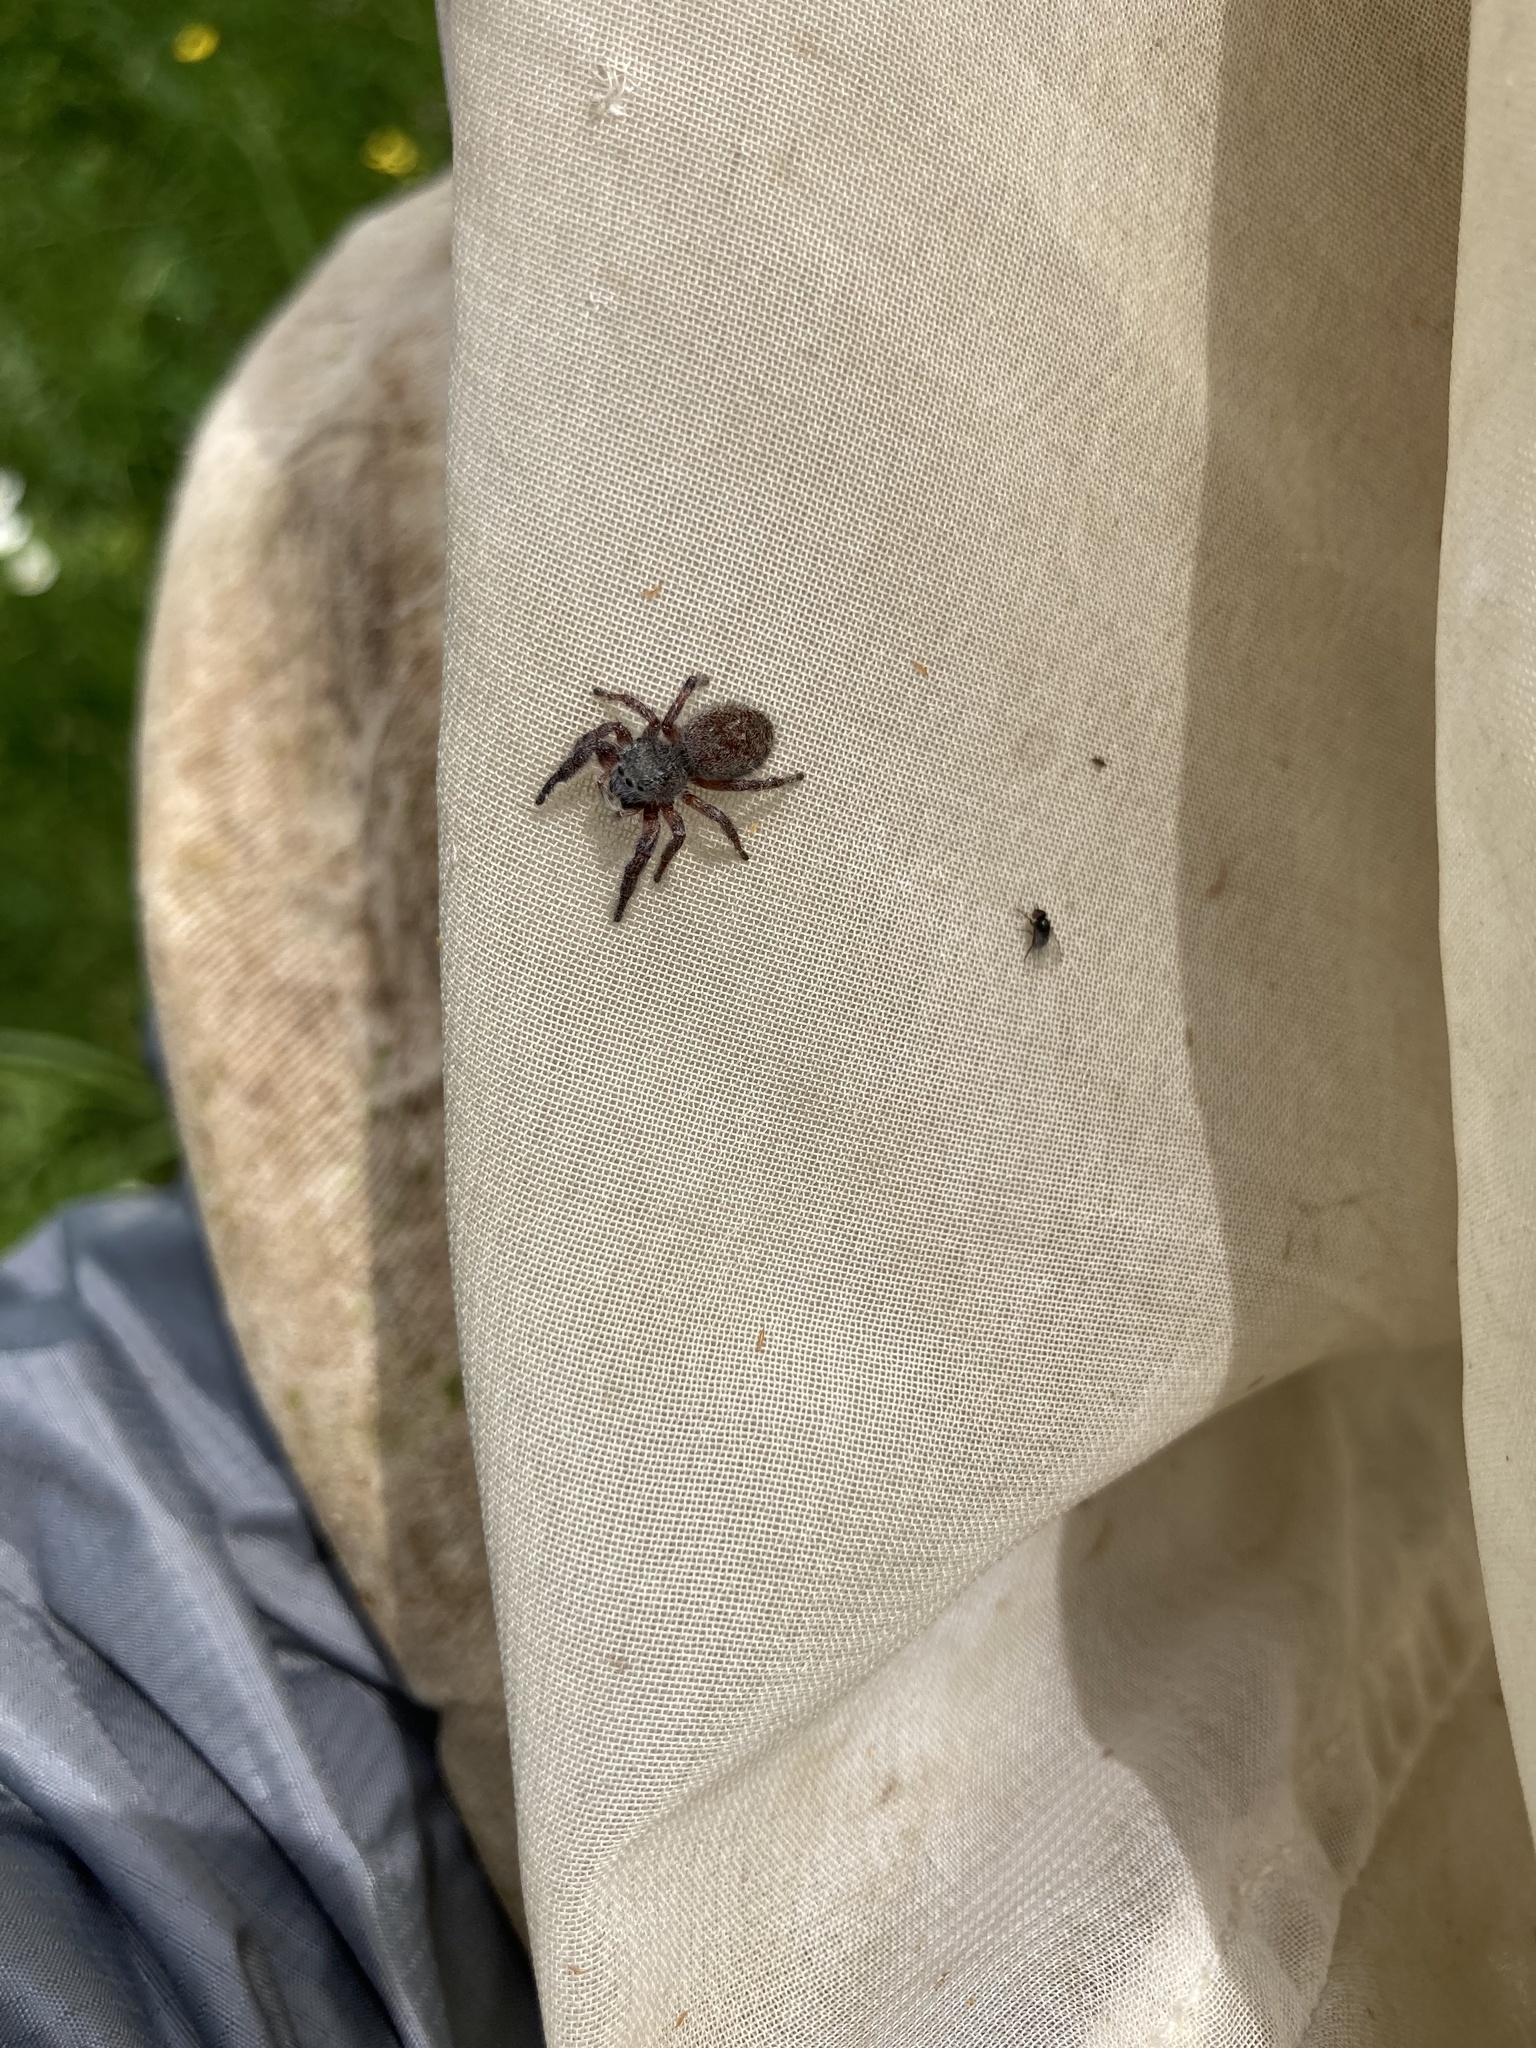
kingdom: Animalia
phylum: Arthropoda
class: Arachnida
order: Araneae
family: Salticidae
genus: Phidippus
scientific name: Phidippus princeps
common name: Grayish jumping spider
